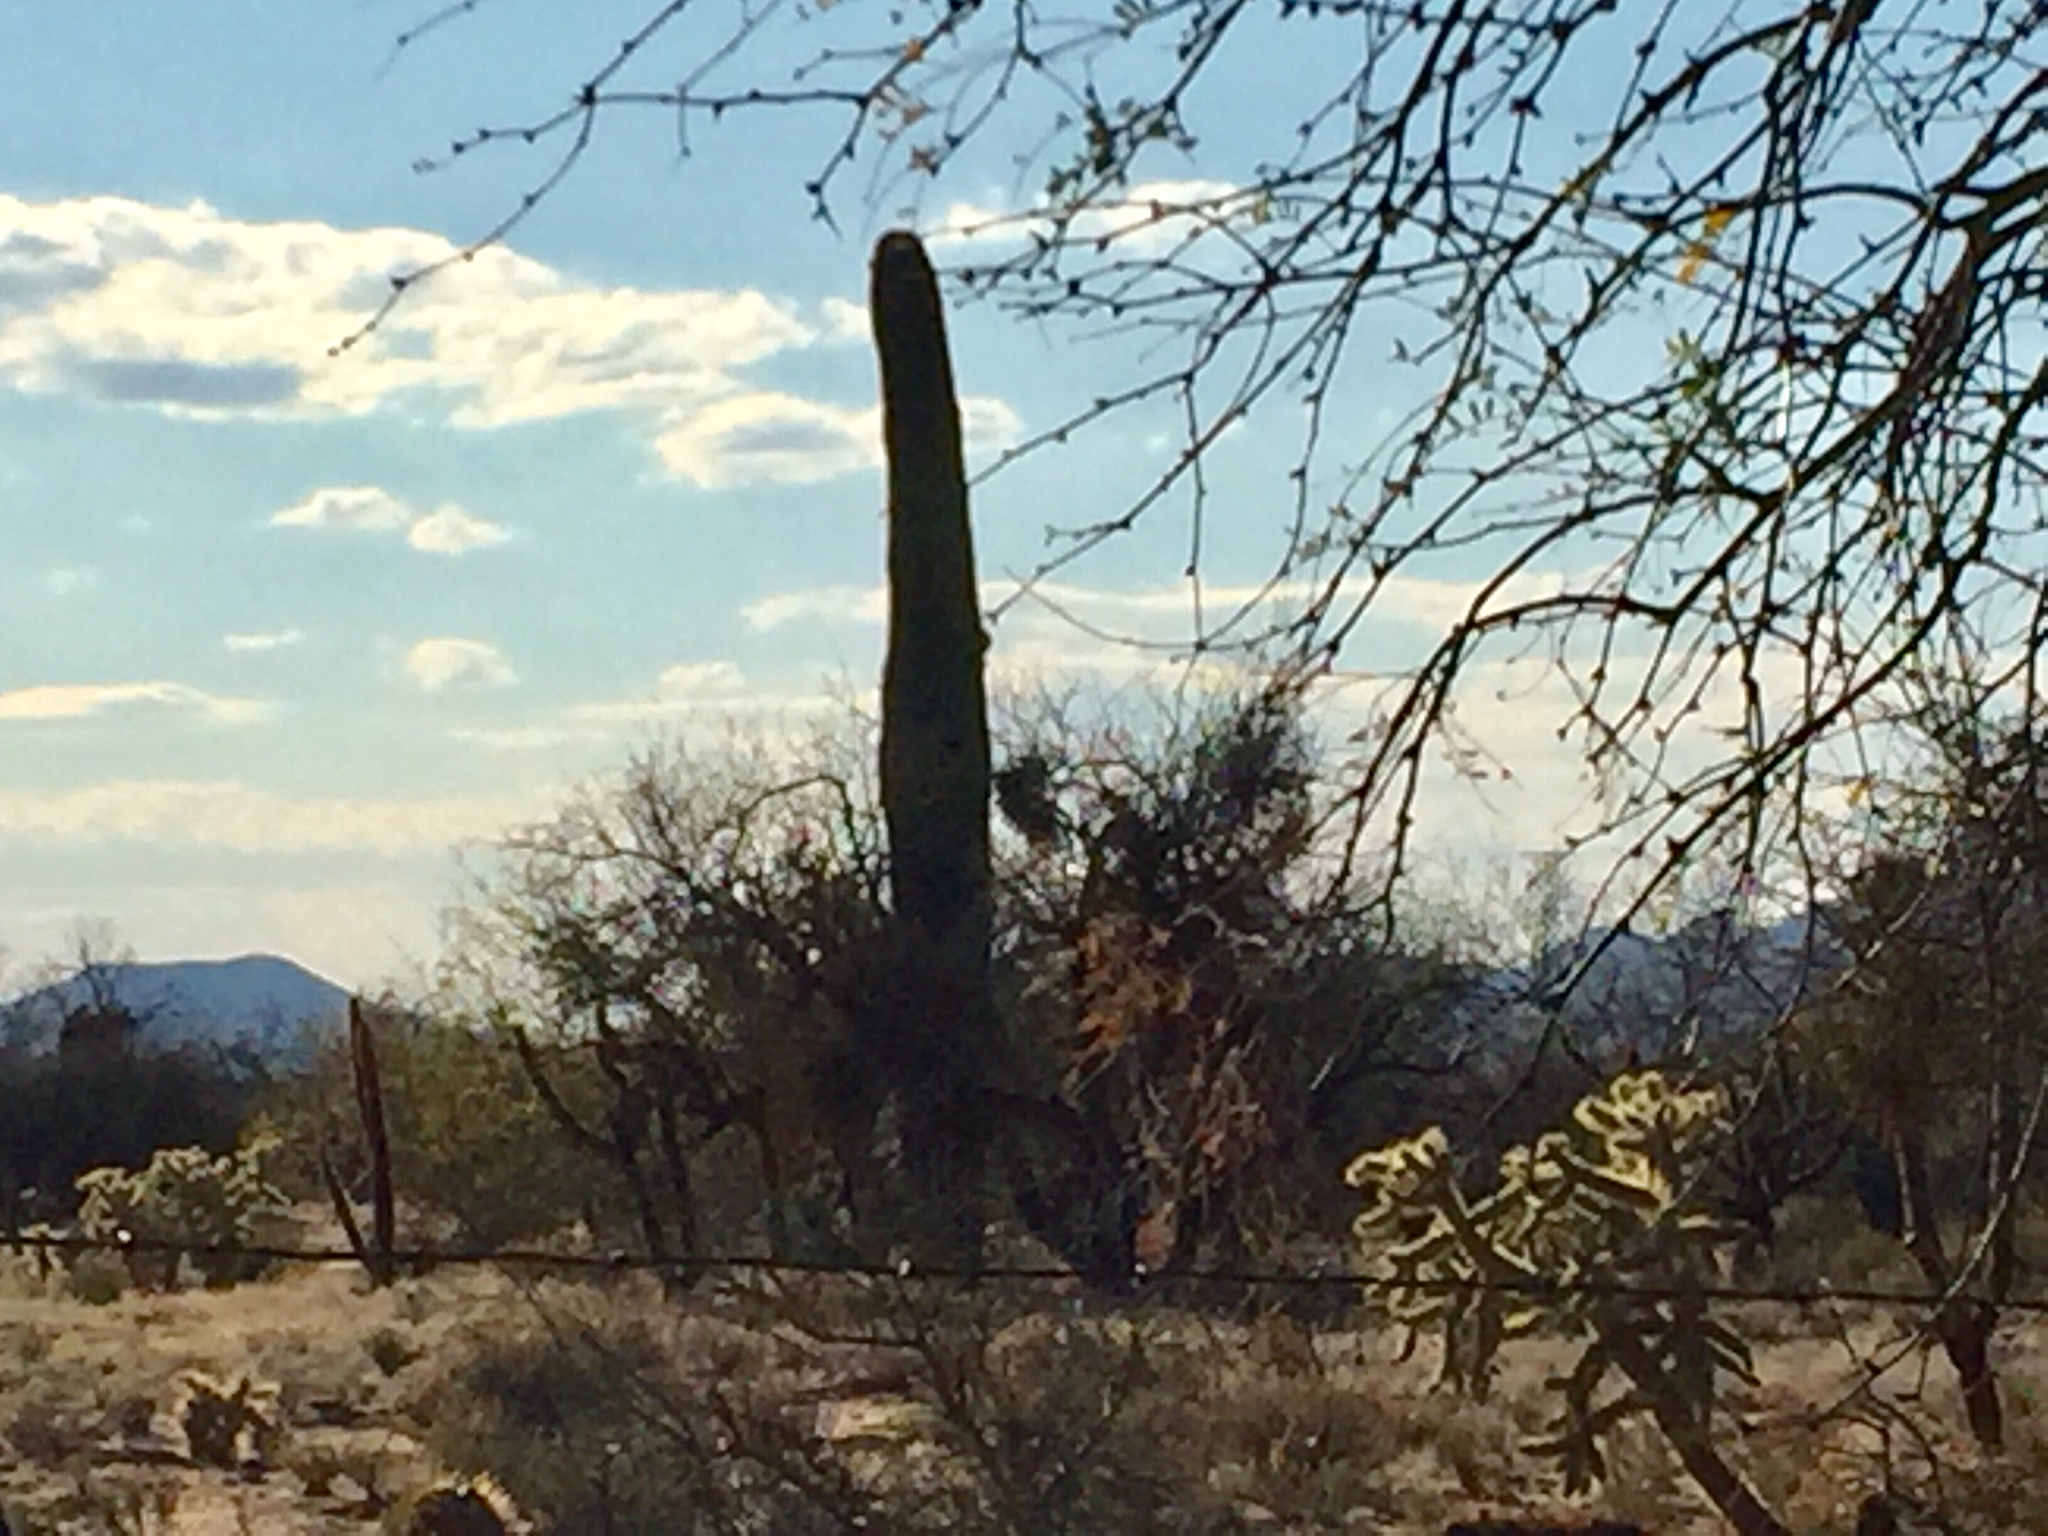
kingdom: Plantae
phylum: Tracheophyta
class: Magnoliopsida
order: Caryophyllales
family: Cactaceae
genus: Carnegiea
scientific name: Carnegiea gigantea
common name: Saguaro
